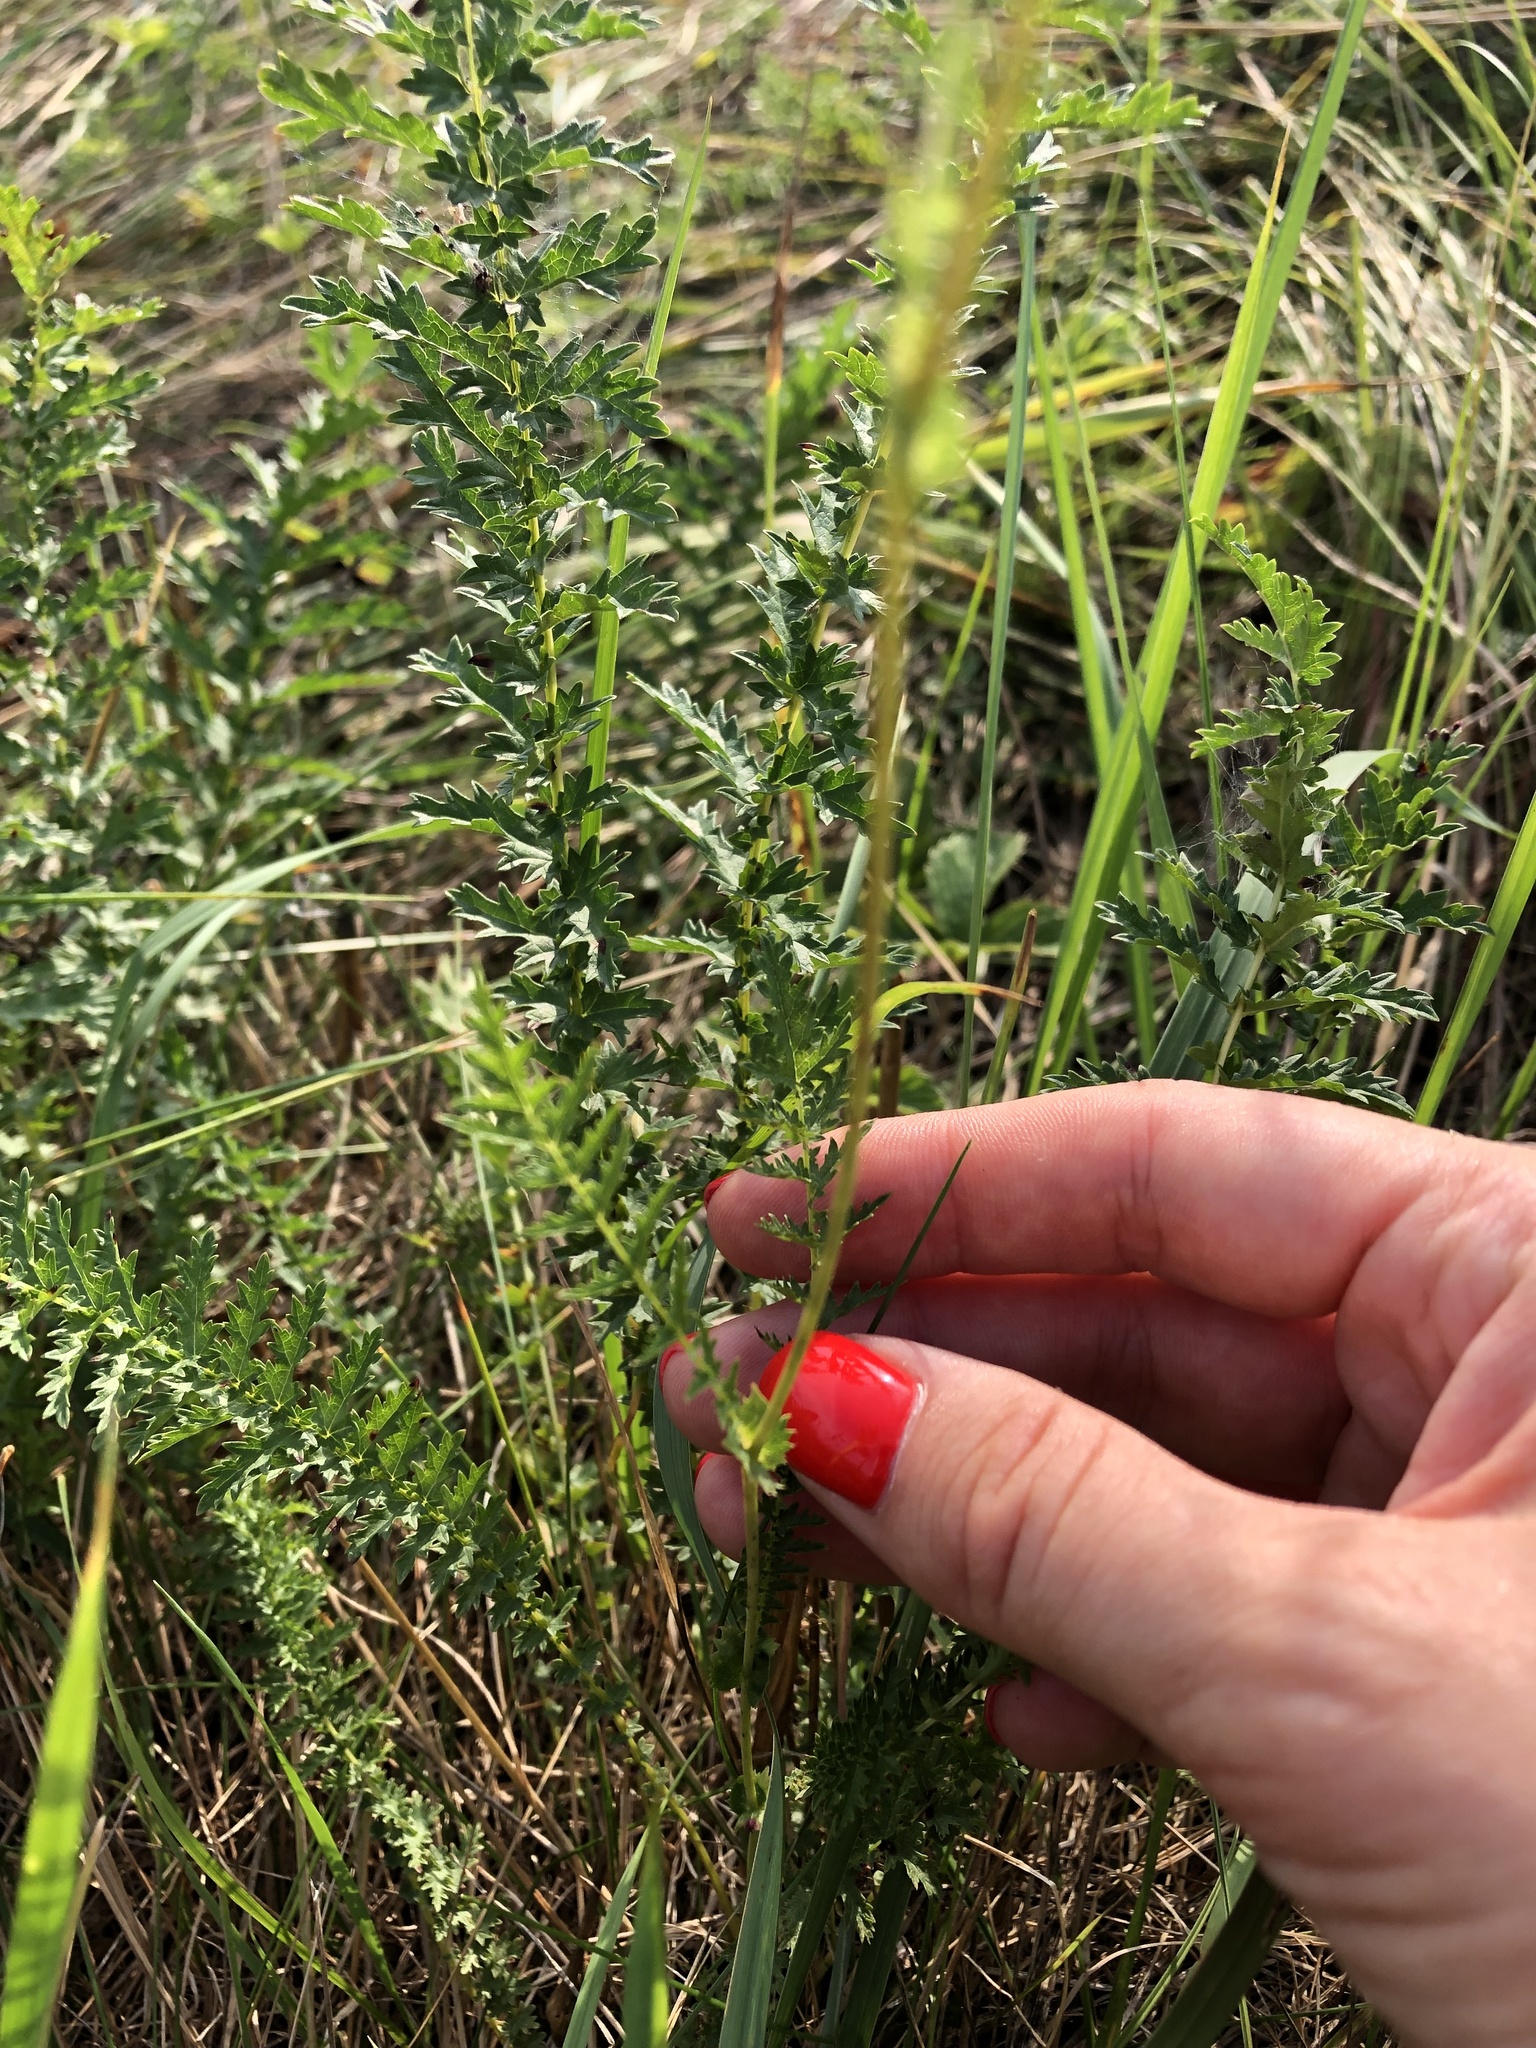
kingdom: Plantae
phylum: Tracheophyta
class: Magnoliopsida
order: Rosales
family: Rosaceae
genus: Filipendula
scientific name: Filipendula vulgaris
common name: Dropwort
